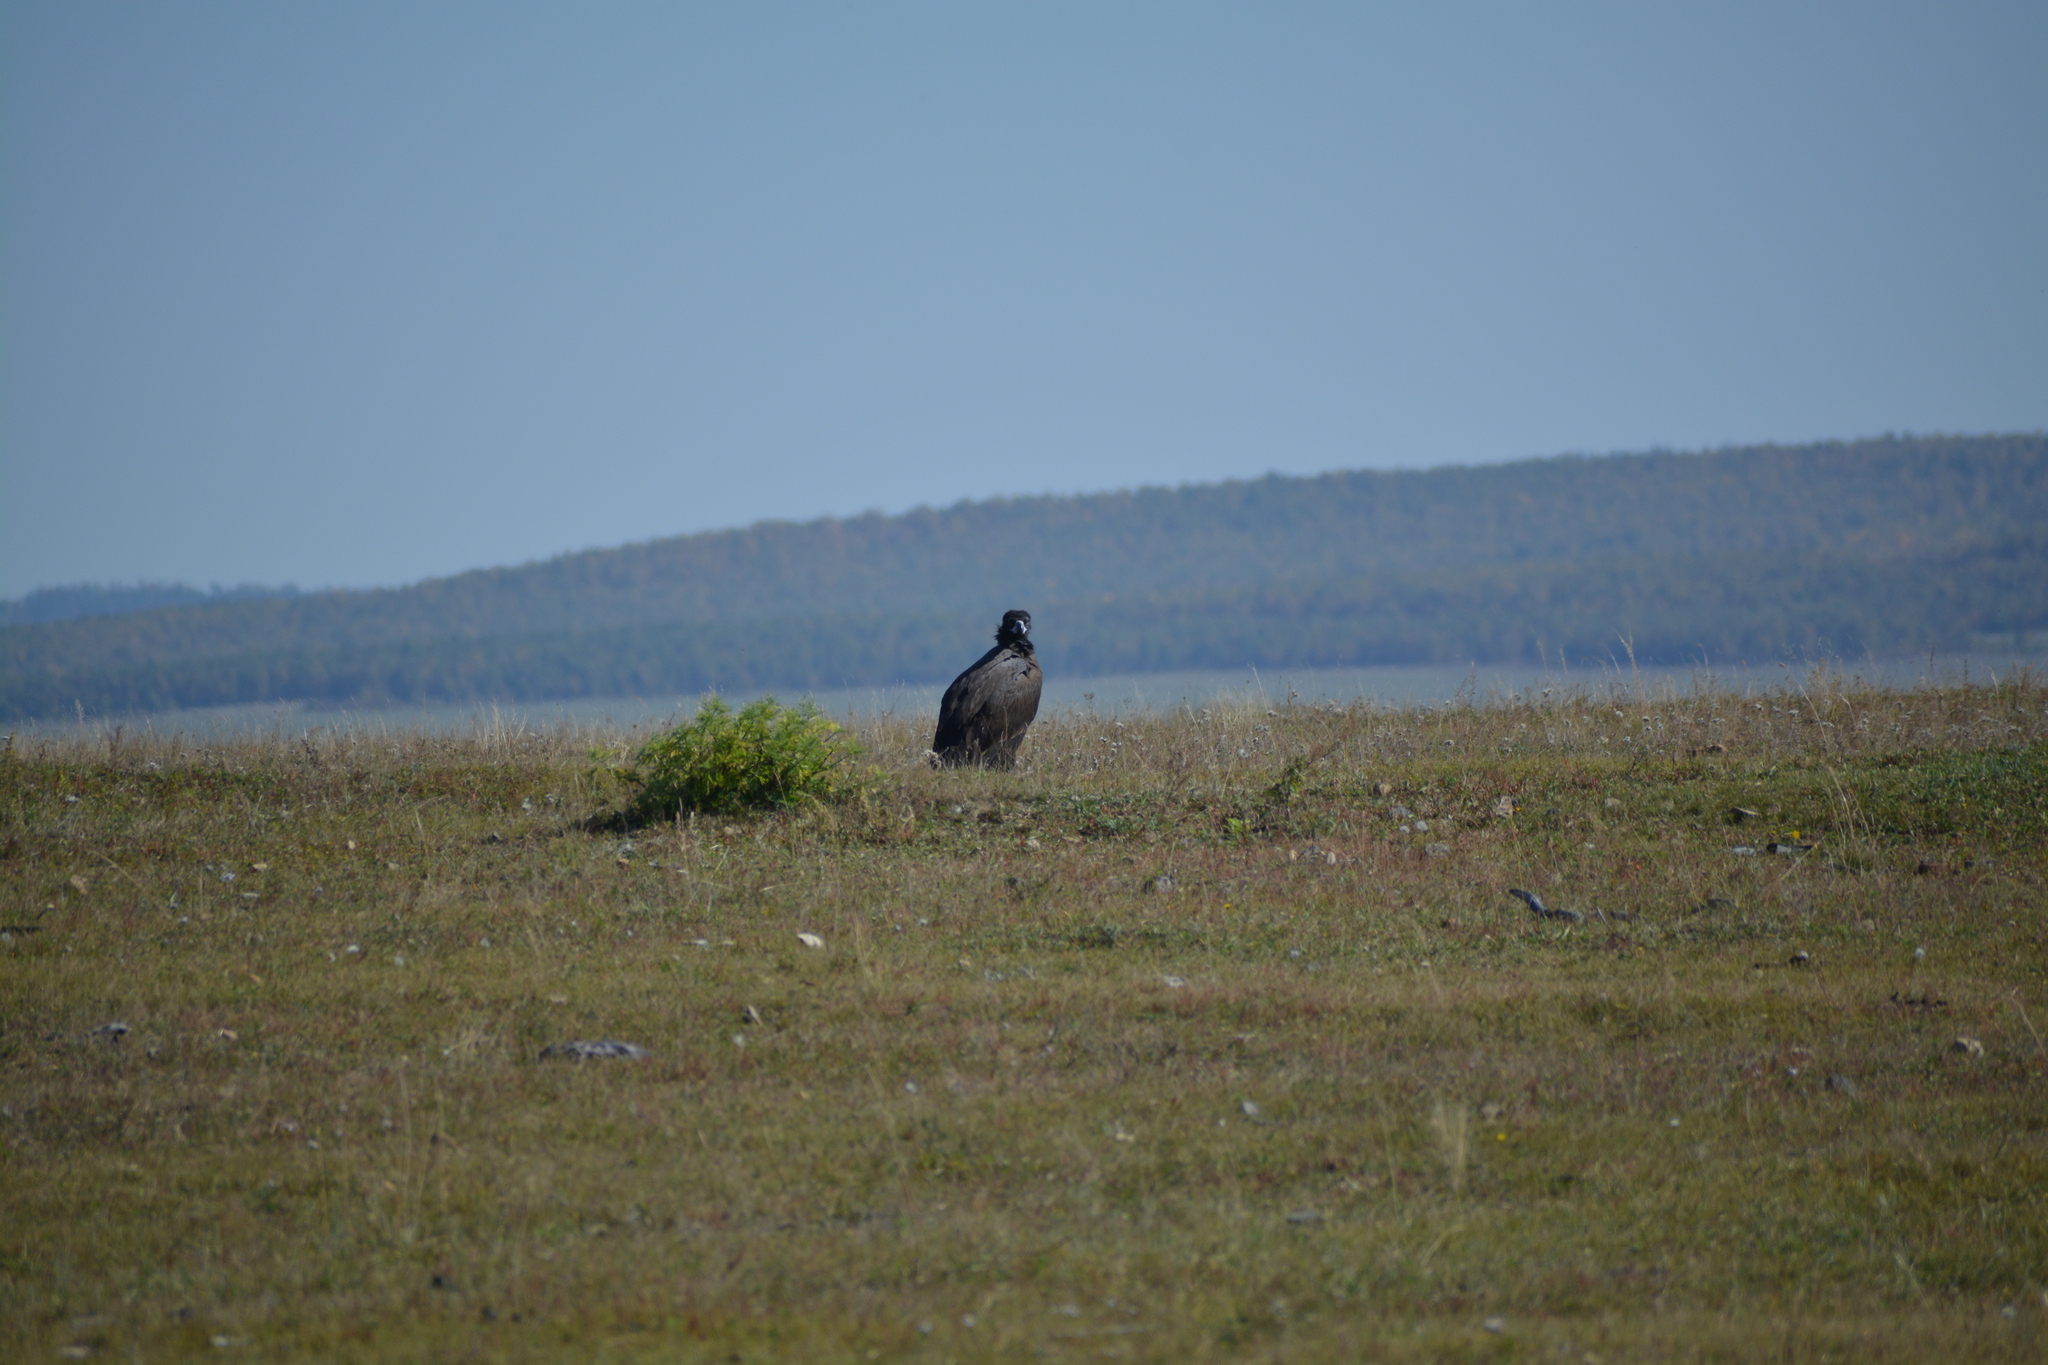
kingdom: Animalia
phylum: Chordata
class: Aves
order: Accipitriformes
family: Accipitridae
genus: Aegypius
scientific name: Aegypius monachus
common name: Cinereous vulture
